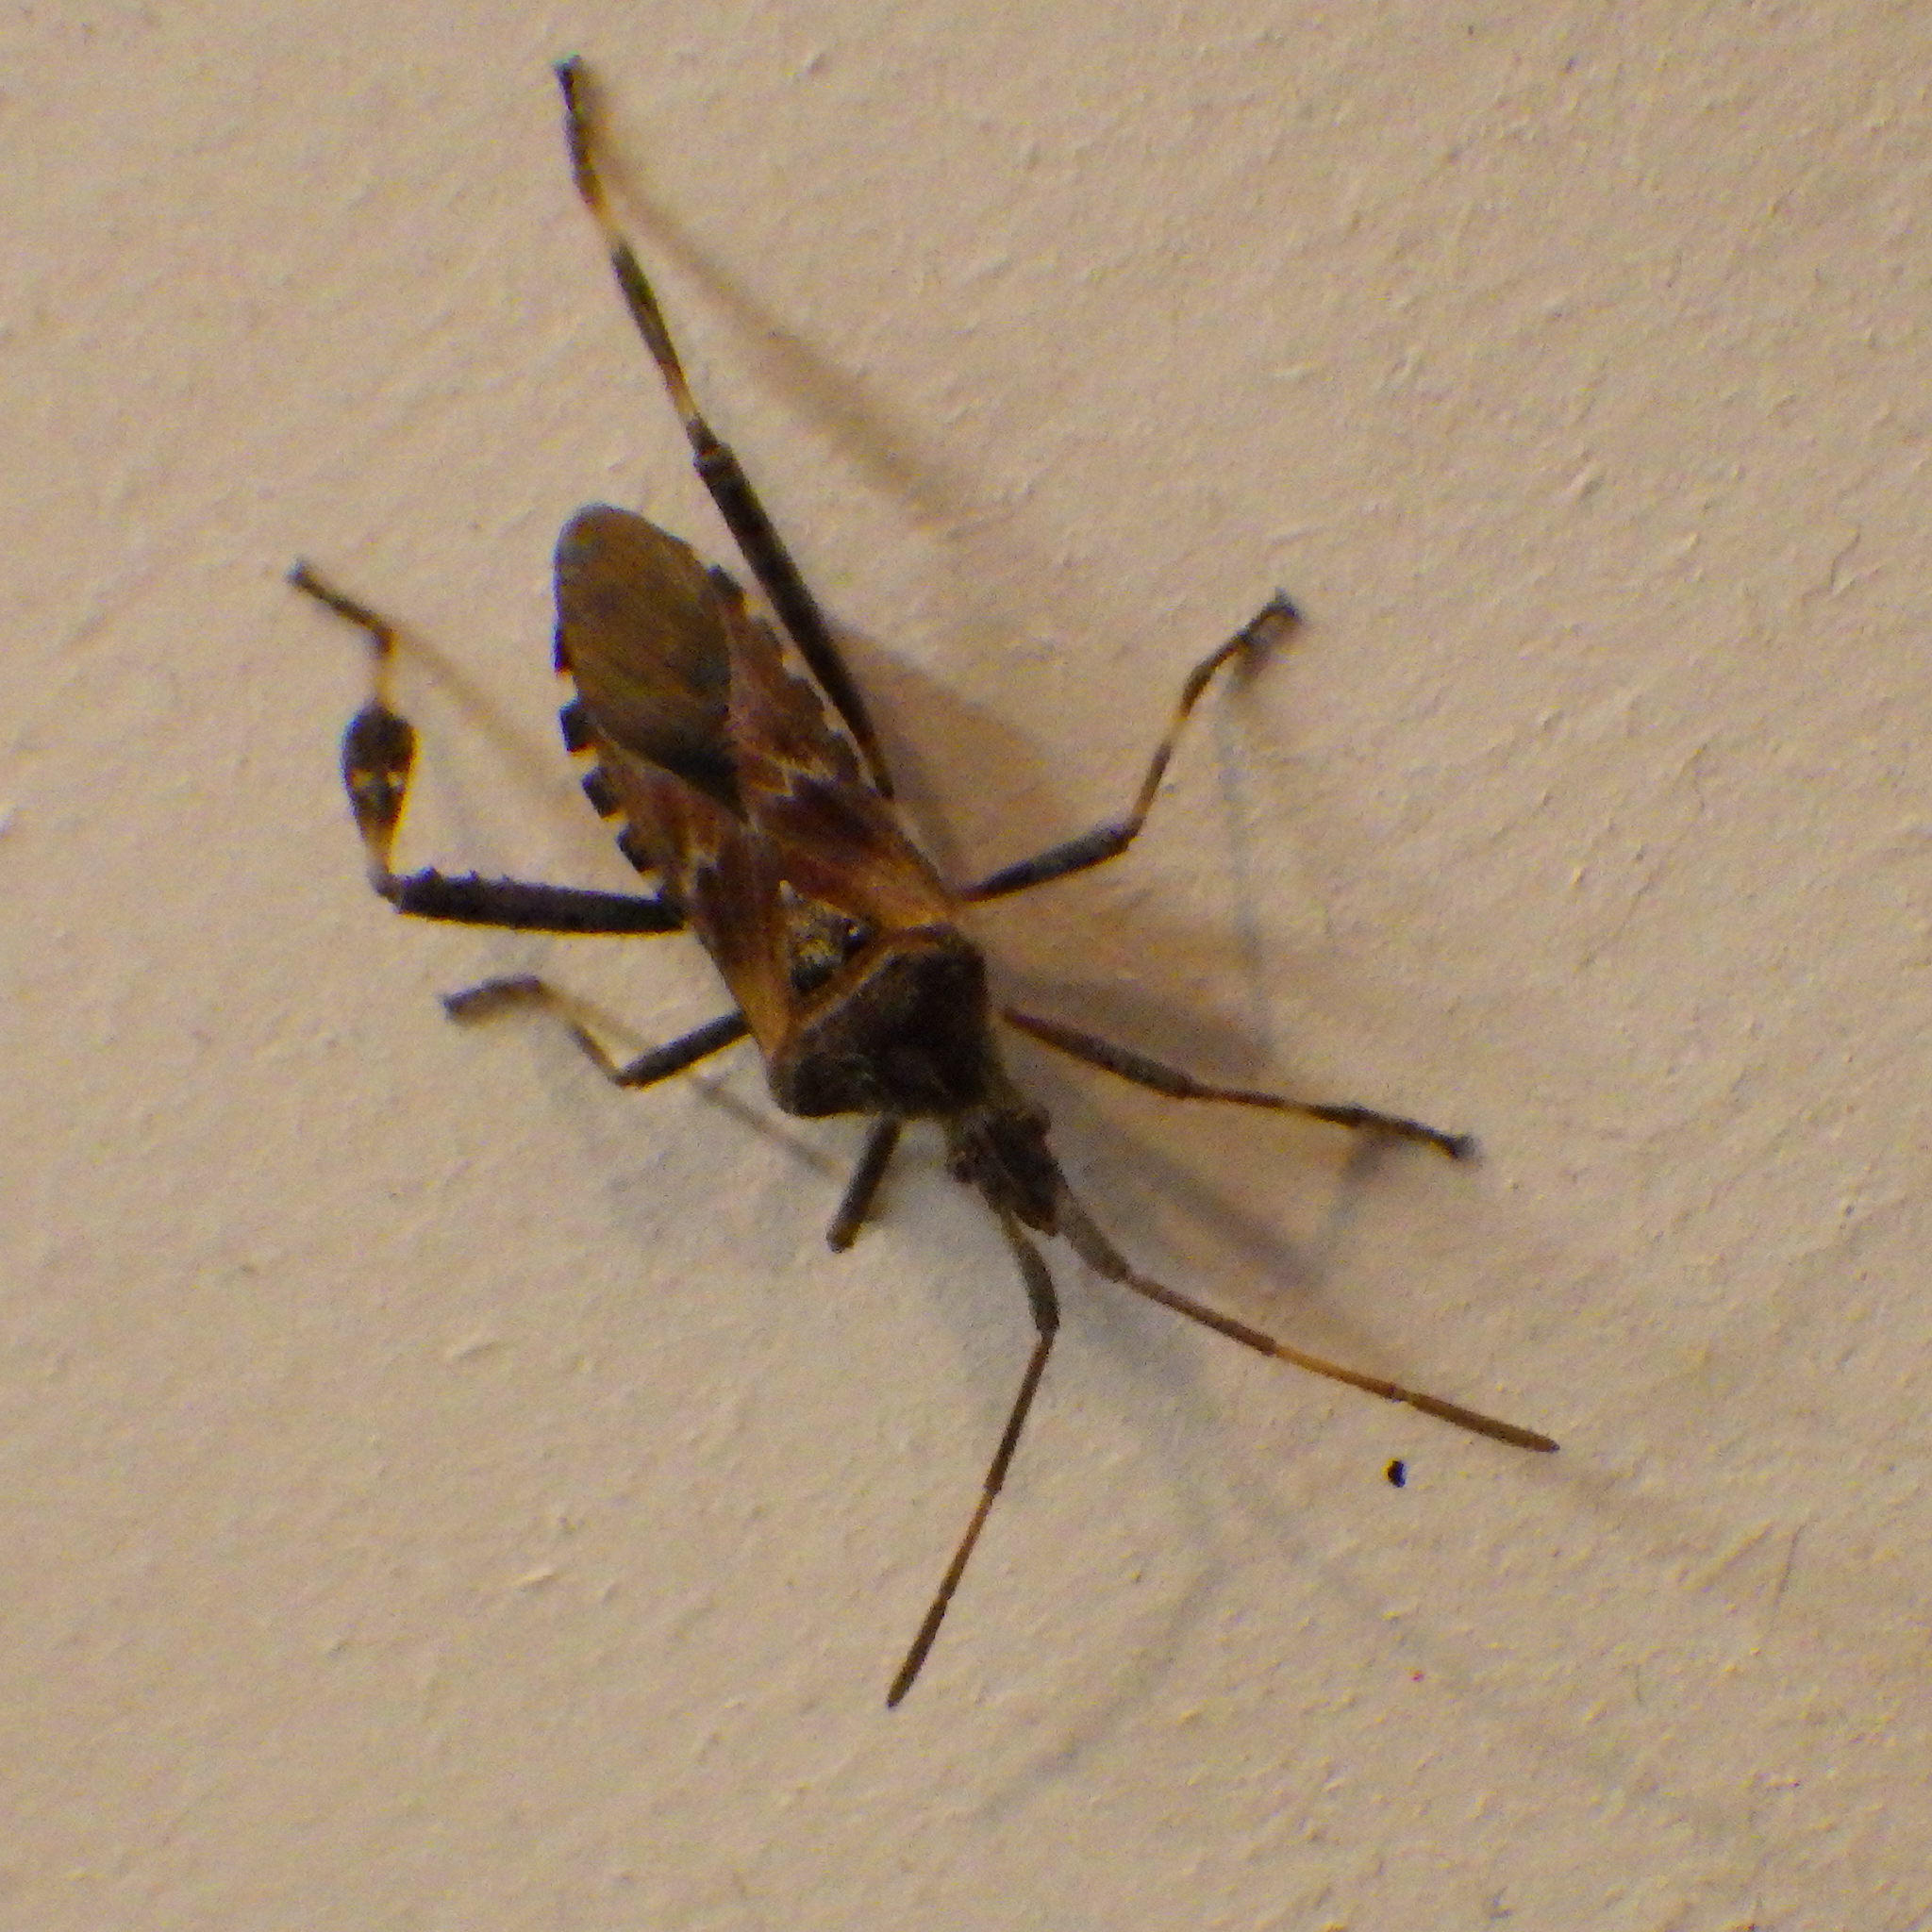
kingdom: Animalia
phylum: Arthropoda
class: Insecta
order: Hemiptera
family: Coreidae
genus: Leptoglossus
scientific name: Leptoglossus occidentalis
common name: Western conifer-seed bug
